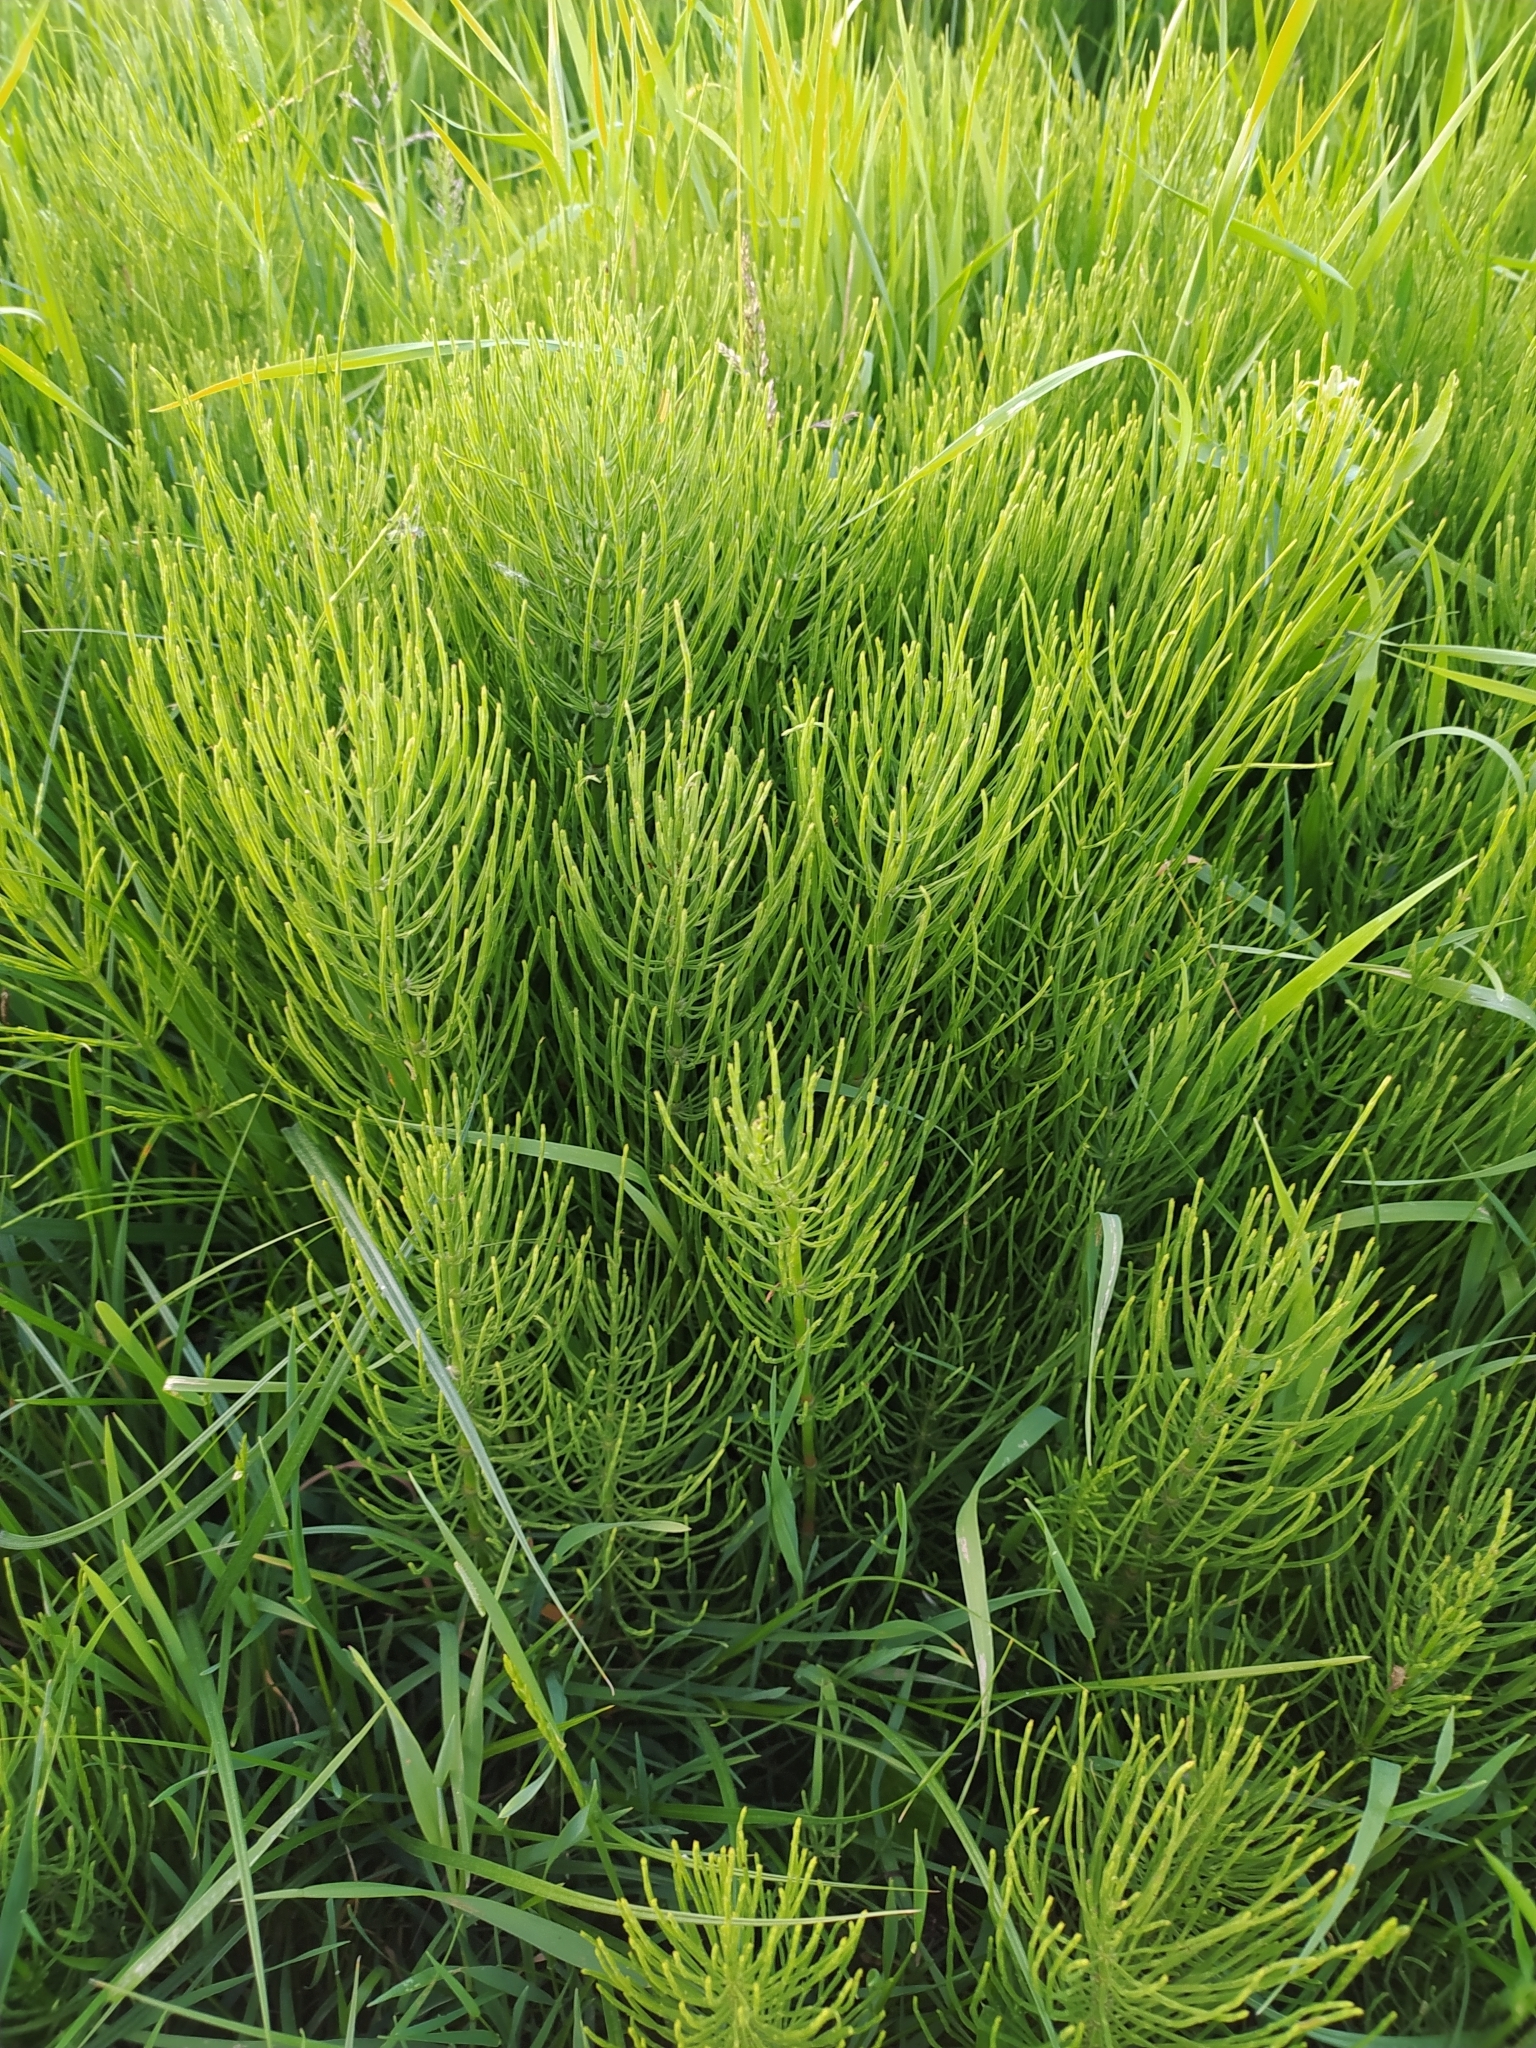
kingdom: Plantae
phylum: Tracheophyta
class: Polypodiopsida
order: Equisetales
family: Equisetaceae
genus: Equisetum
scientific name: Equisetum arvense
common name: Field horsetail
